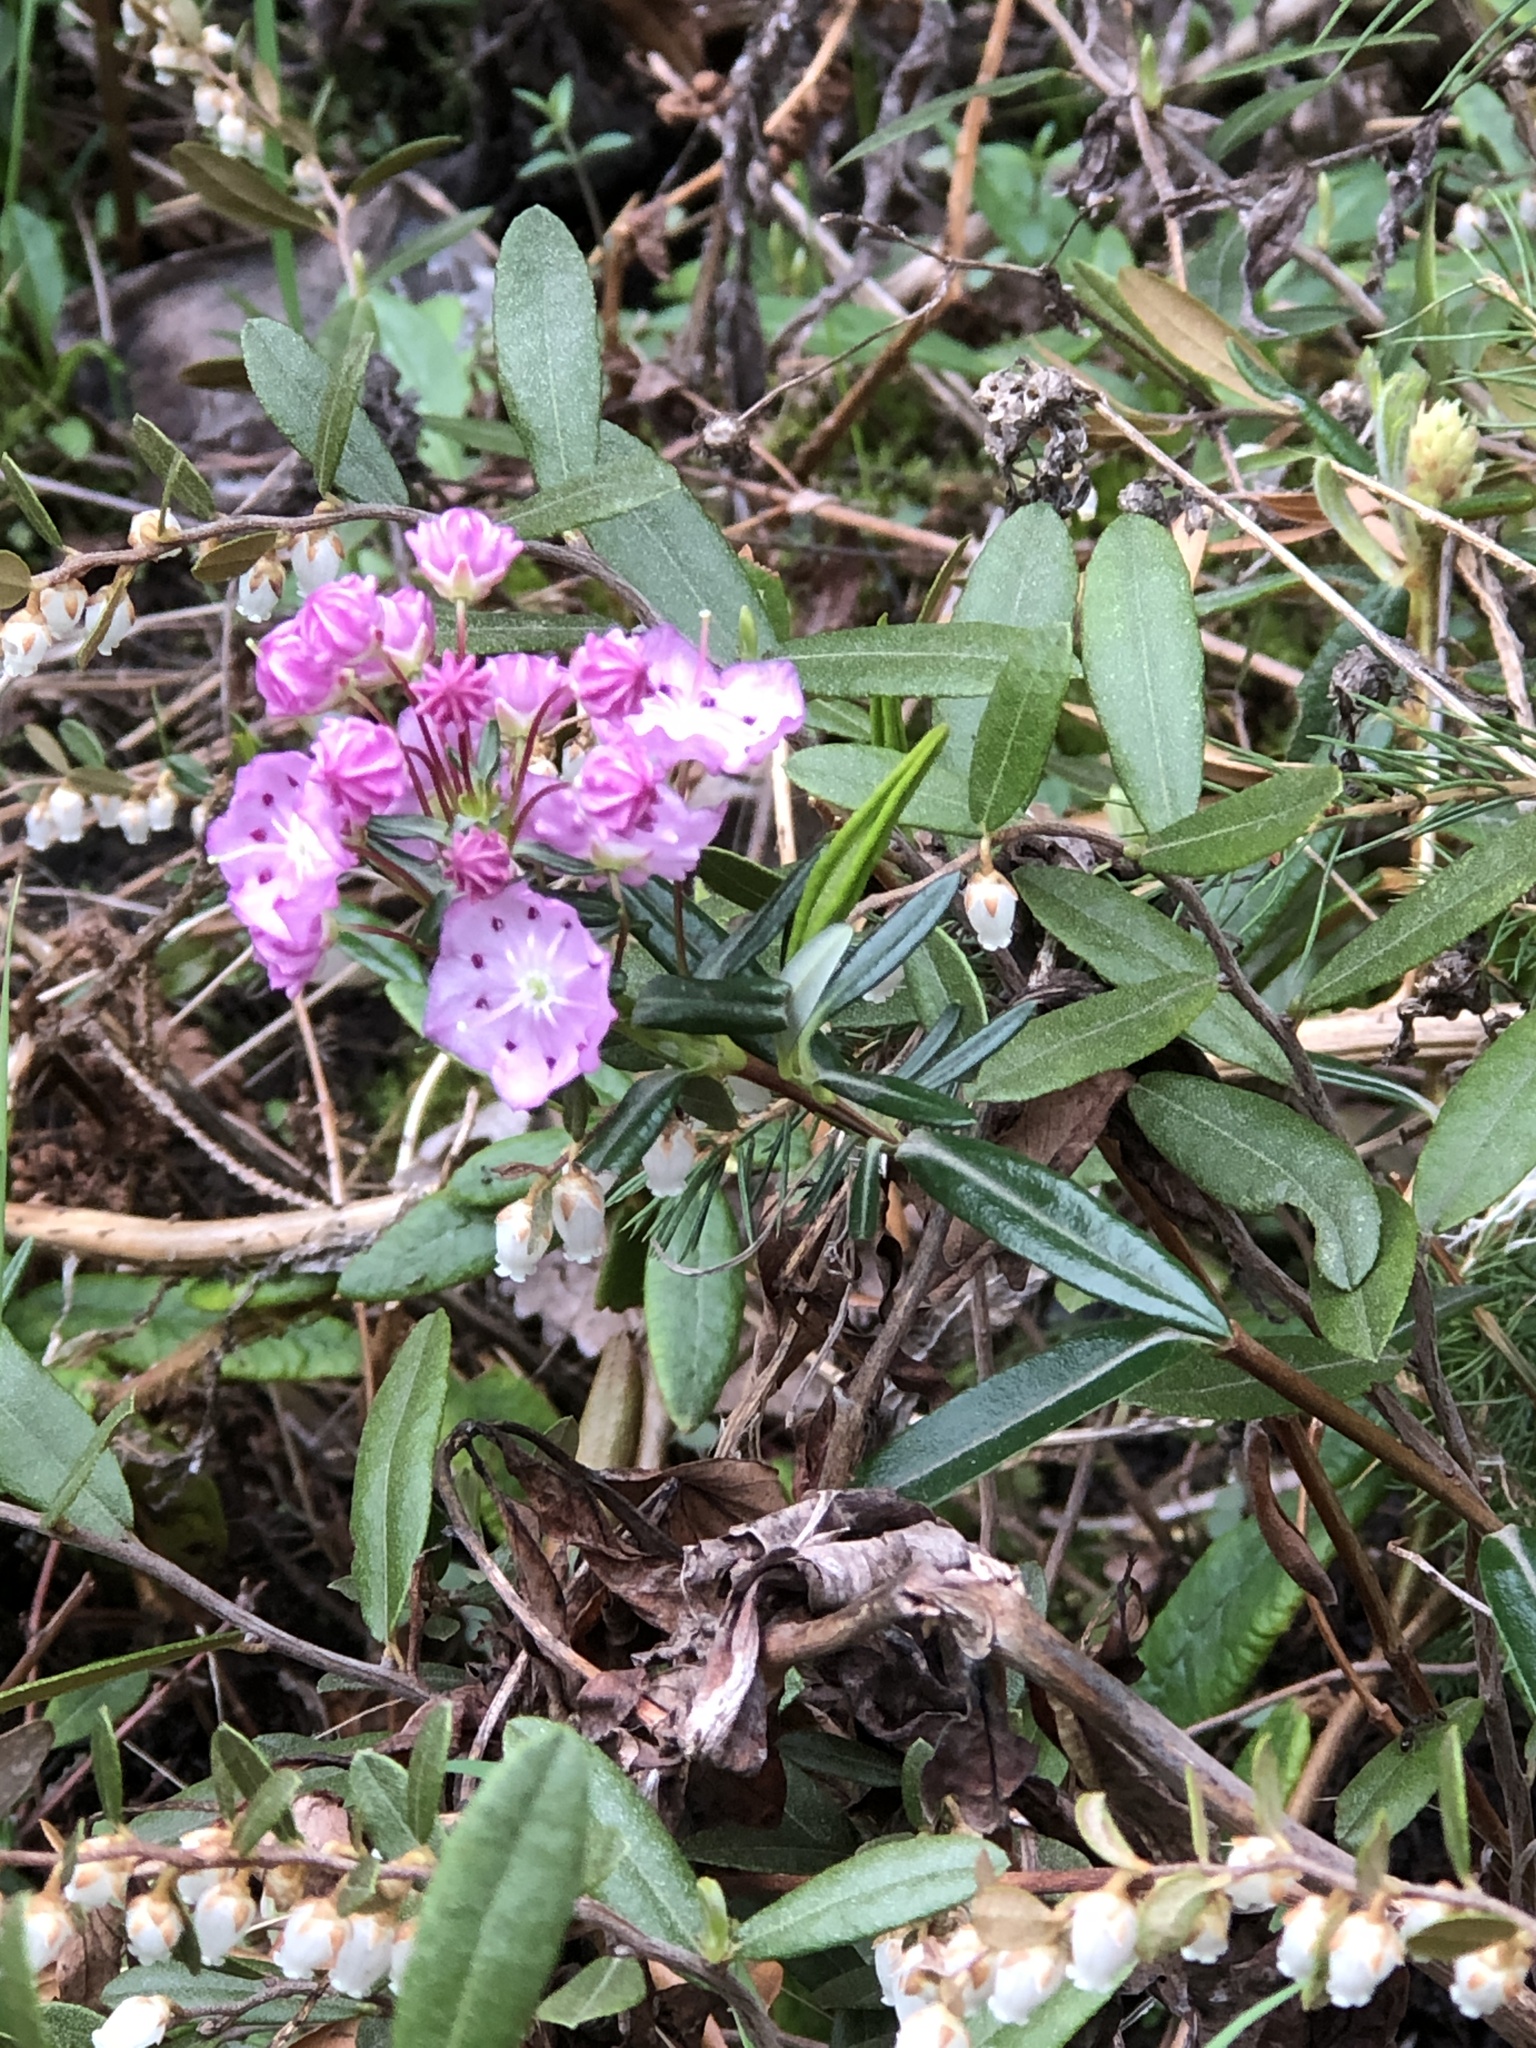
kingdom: Plantae
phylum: Tracheophyta
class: Magnoliopsida
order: Ericales
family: Ericaceae
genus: Kalmia
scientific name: Kalmia polifolia
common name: Bog-laurel
